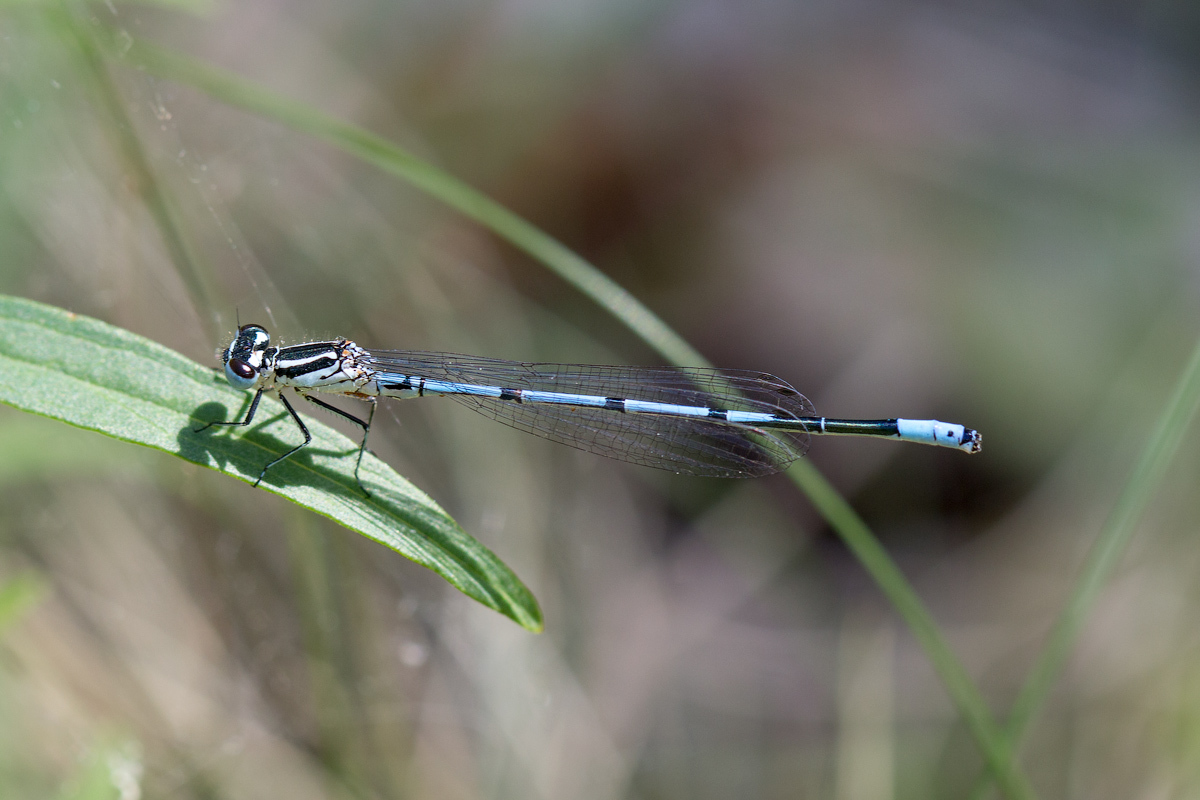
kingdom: Animalia
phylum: Arthropoda
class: Insecta
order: Odonata
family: Coenagrionidae
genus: Coenagrion
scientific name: Coenagrion puella
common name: Azure damselfly
